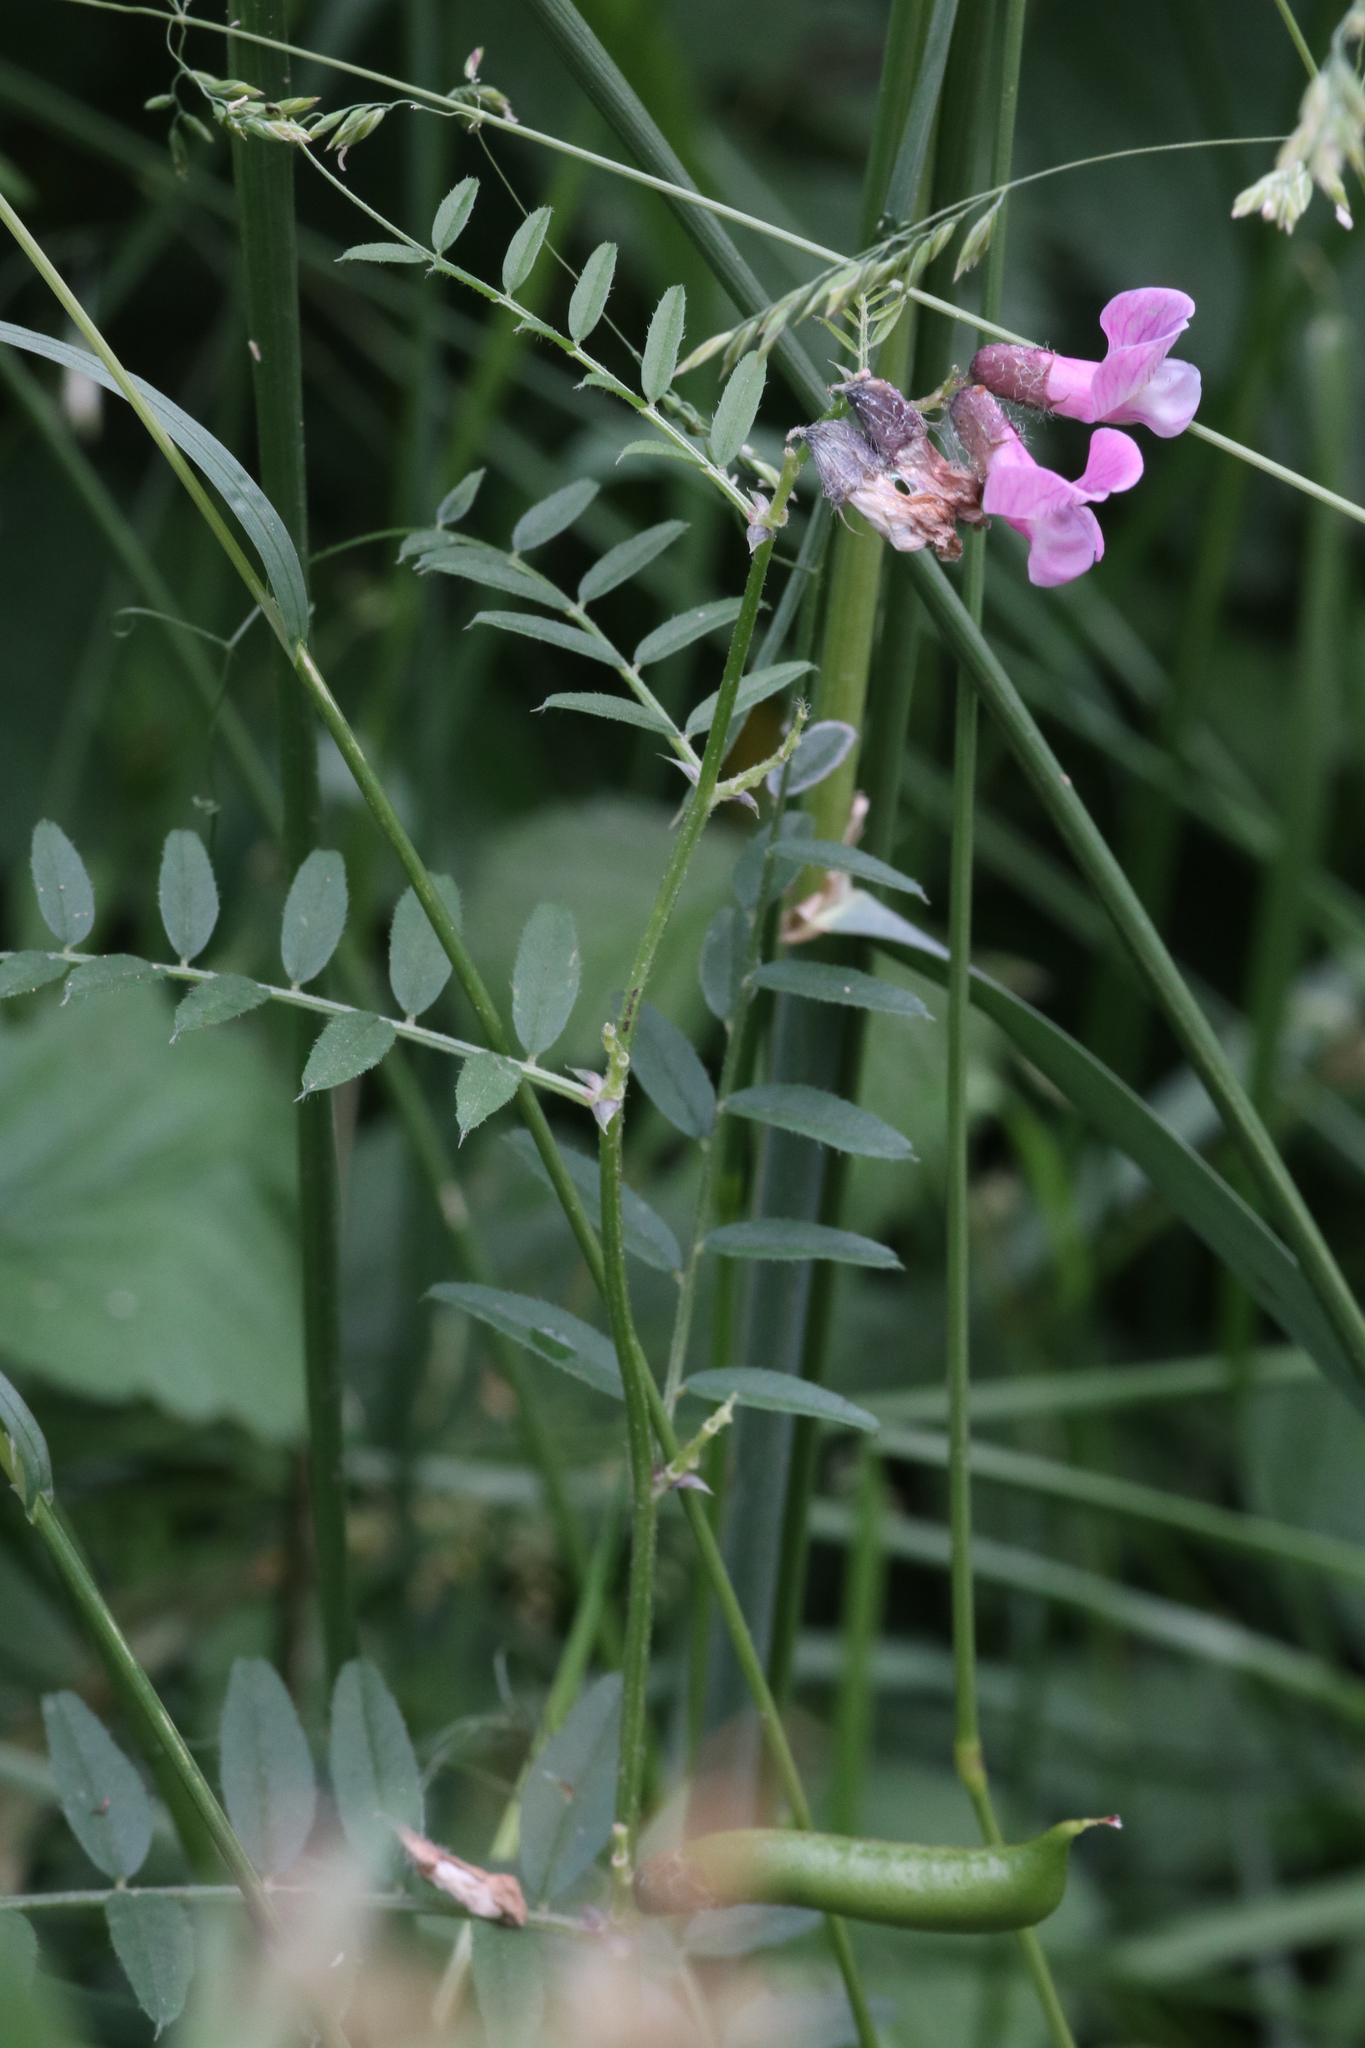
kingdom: Plantae
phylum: Tracheophyta
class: Magnoliopsida
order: Fabales
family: Fabaceae
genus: Vicia
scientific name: Vicia sepium
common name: Bush vetch
